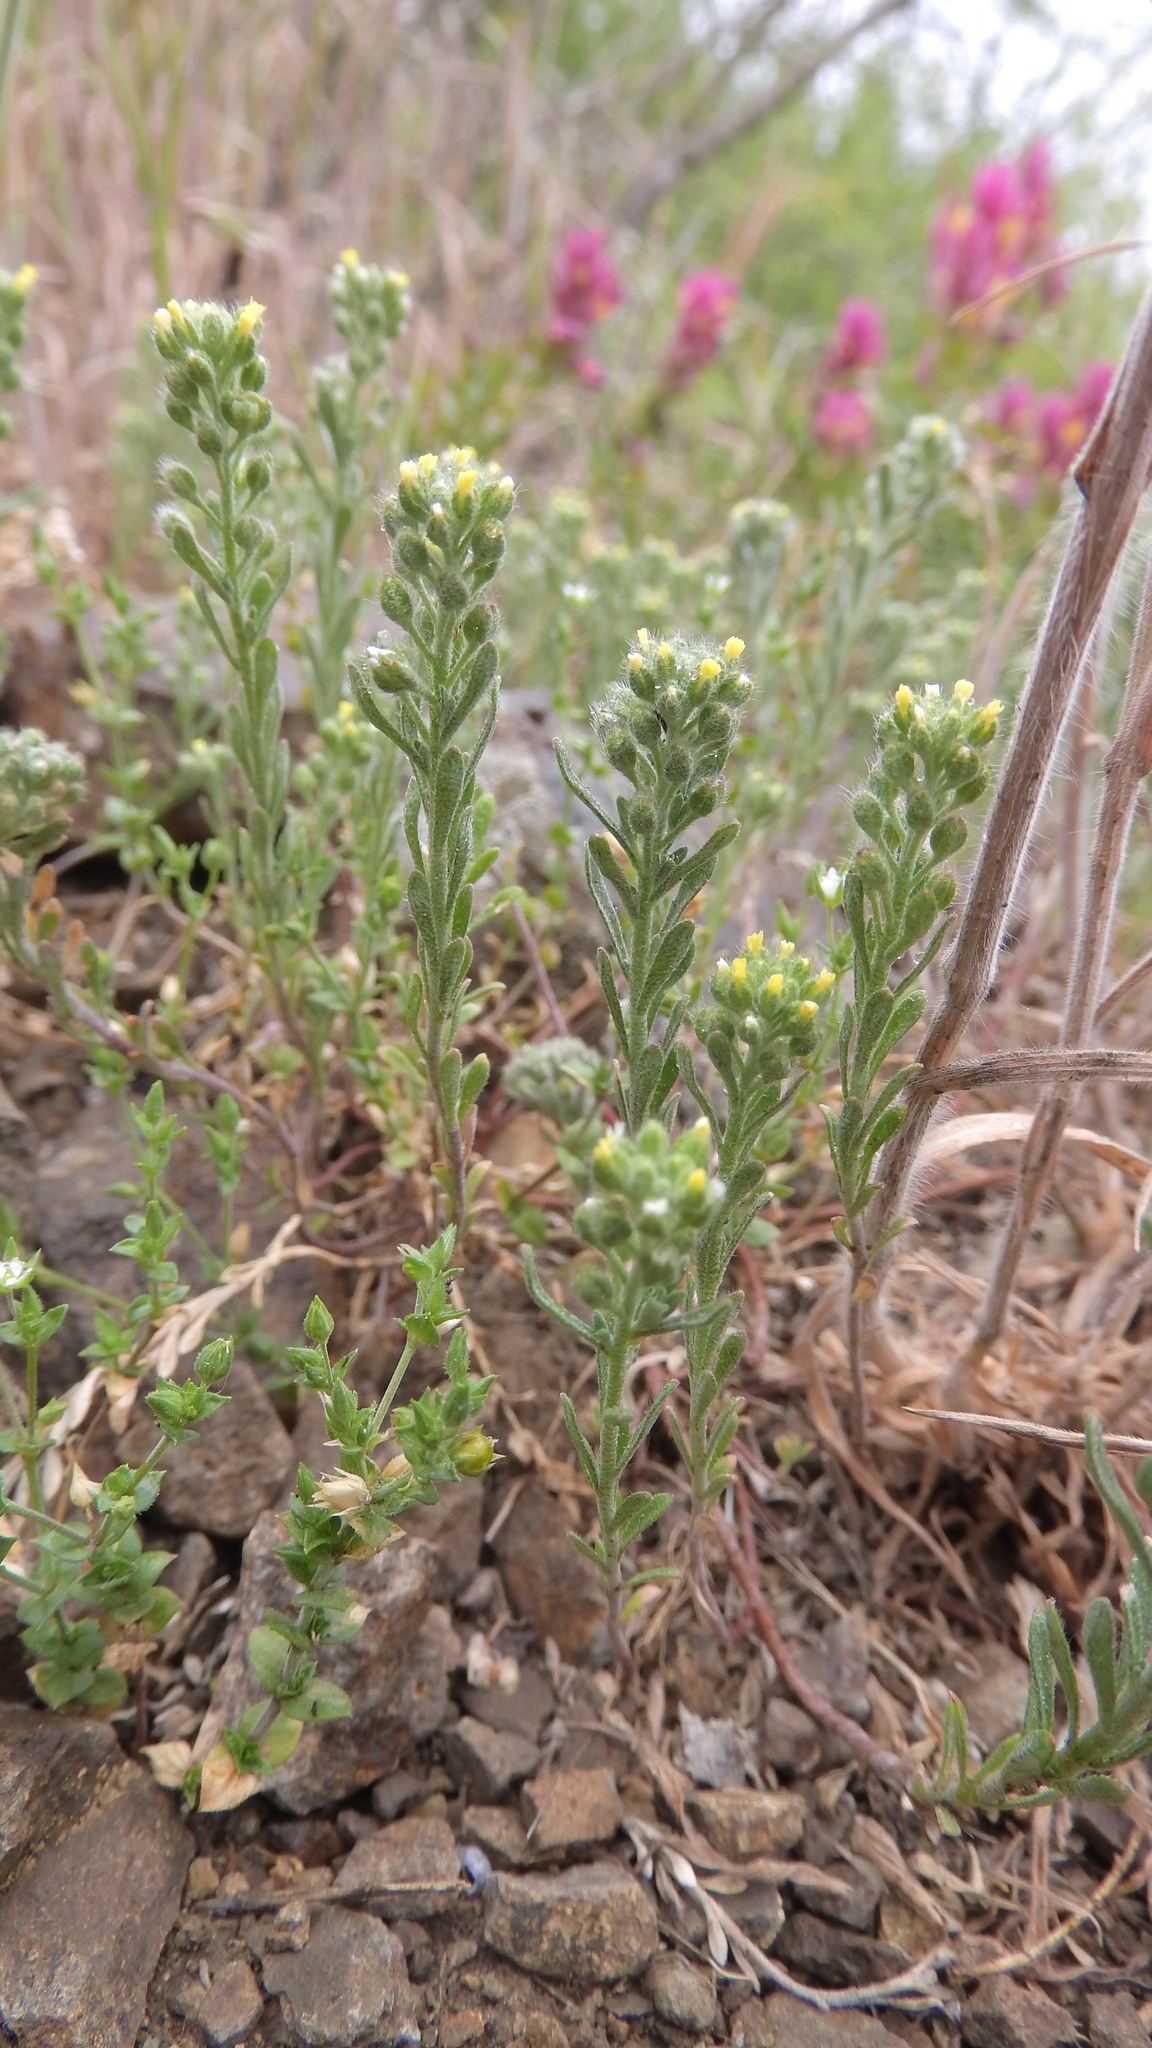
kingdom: Plantae
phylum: Tracheophyta
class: Magnoliopsida
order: Brassicales
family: Brassicaceae
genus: Alyssum
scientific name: Alyssum alyssoides
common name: Small alison
